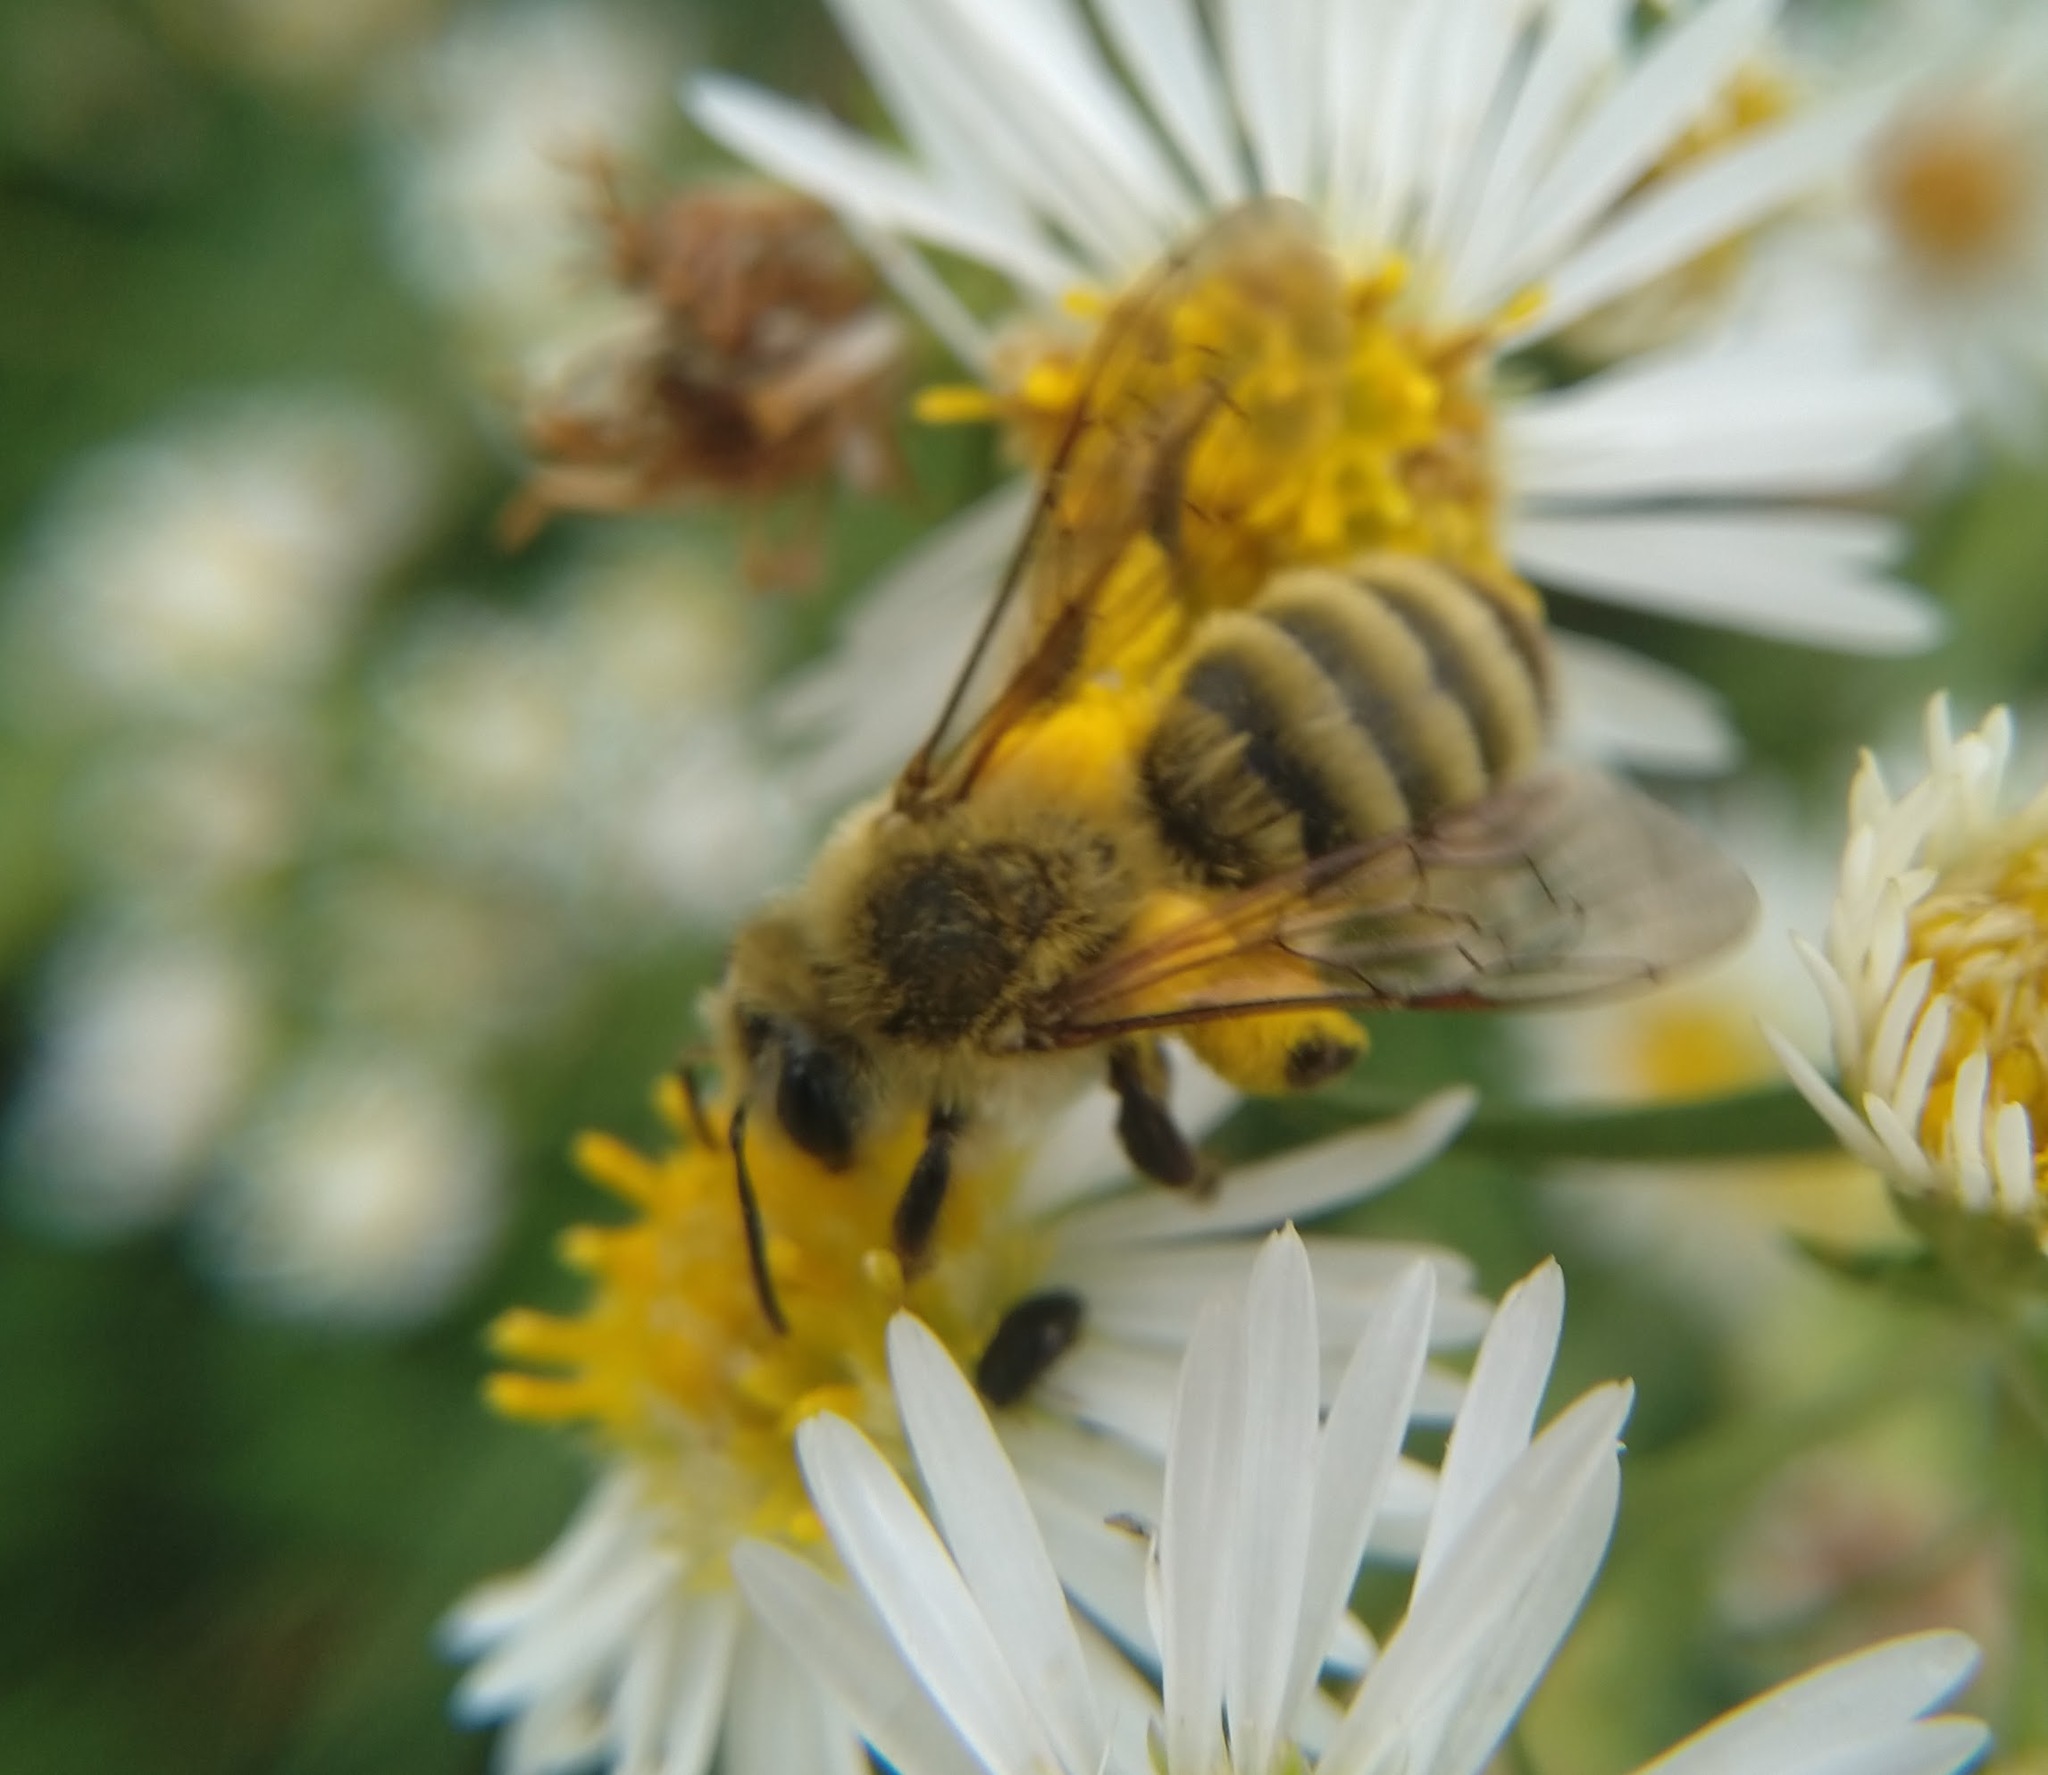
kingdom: Animalia
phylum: Arthropoda
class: Insecta
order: Hymenoptera
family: Andrenidae
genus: Andrena
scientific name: Andrena hirticincta
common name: Hairy-banded mining bee
